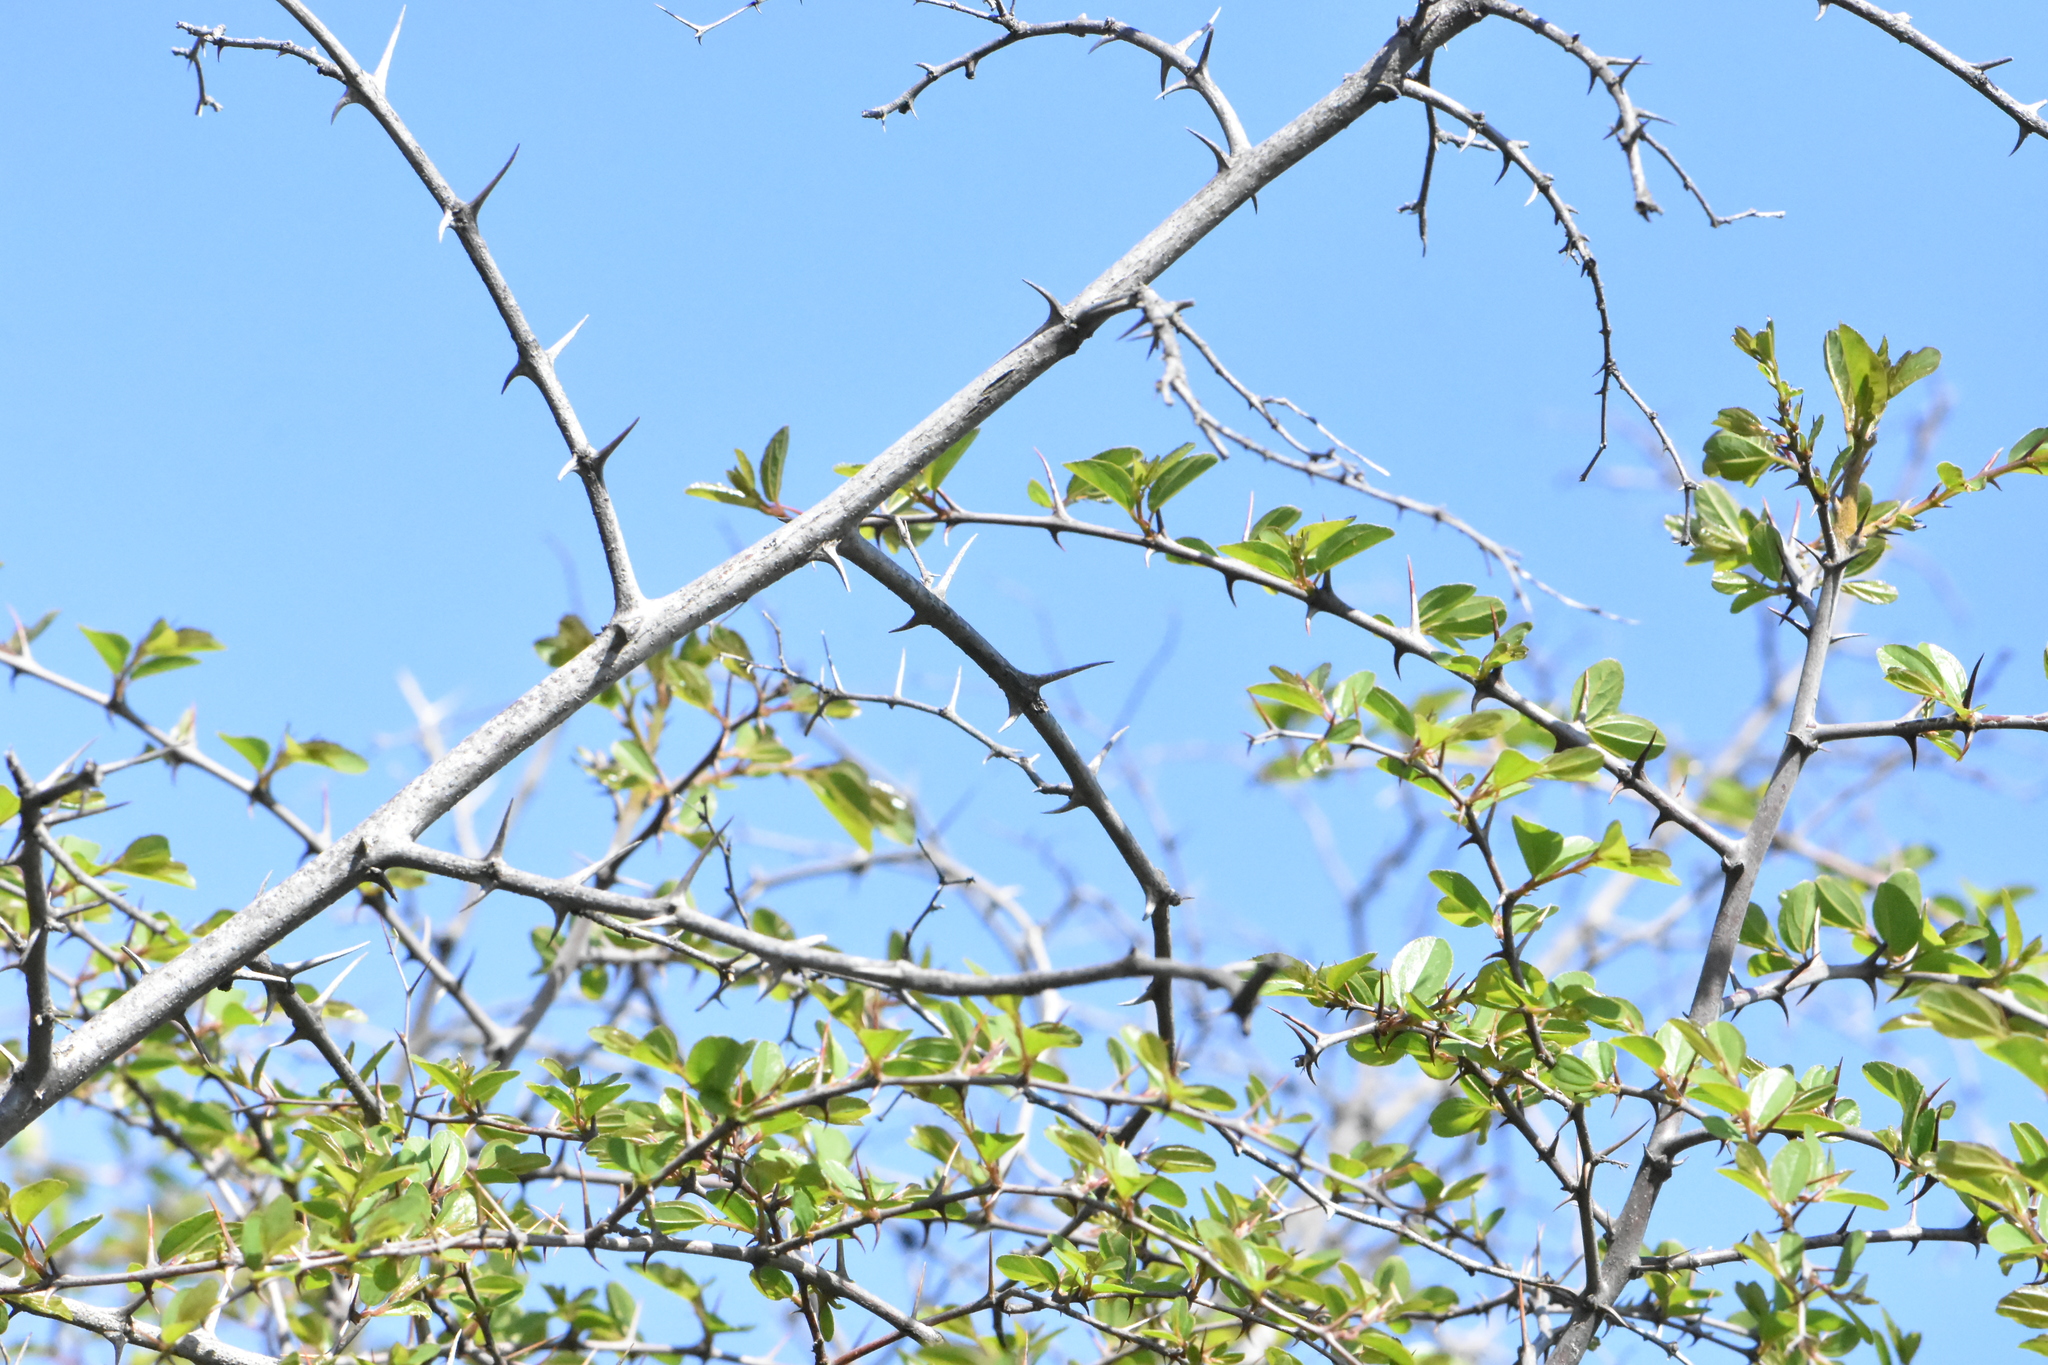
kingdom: Plantae
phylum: Tracheophyta
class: Magnoliopsida
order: Rosales
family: Rhamnaceae
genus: Paliurus
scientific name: Paliurus spina-christi
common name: Jeruselem thorn
